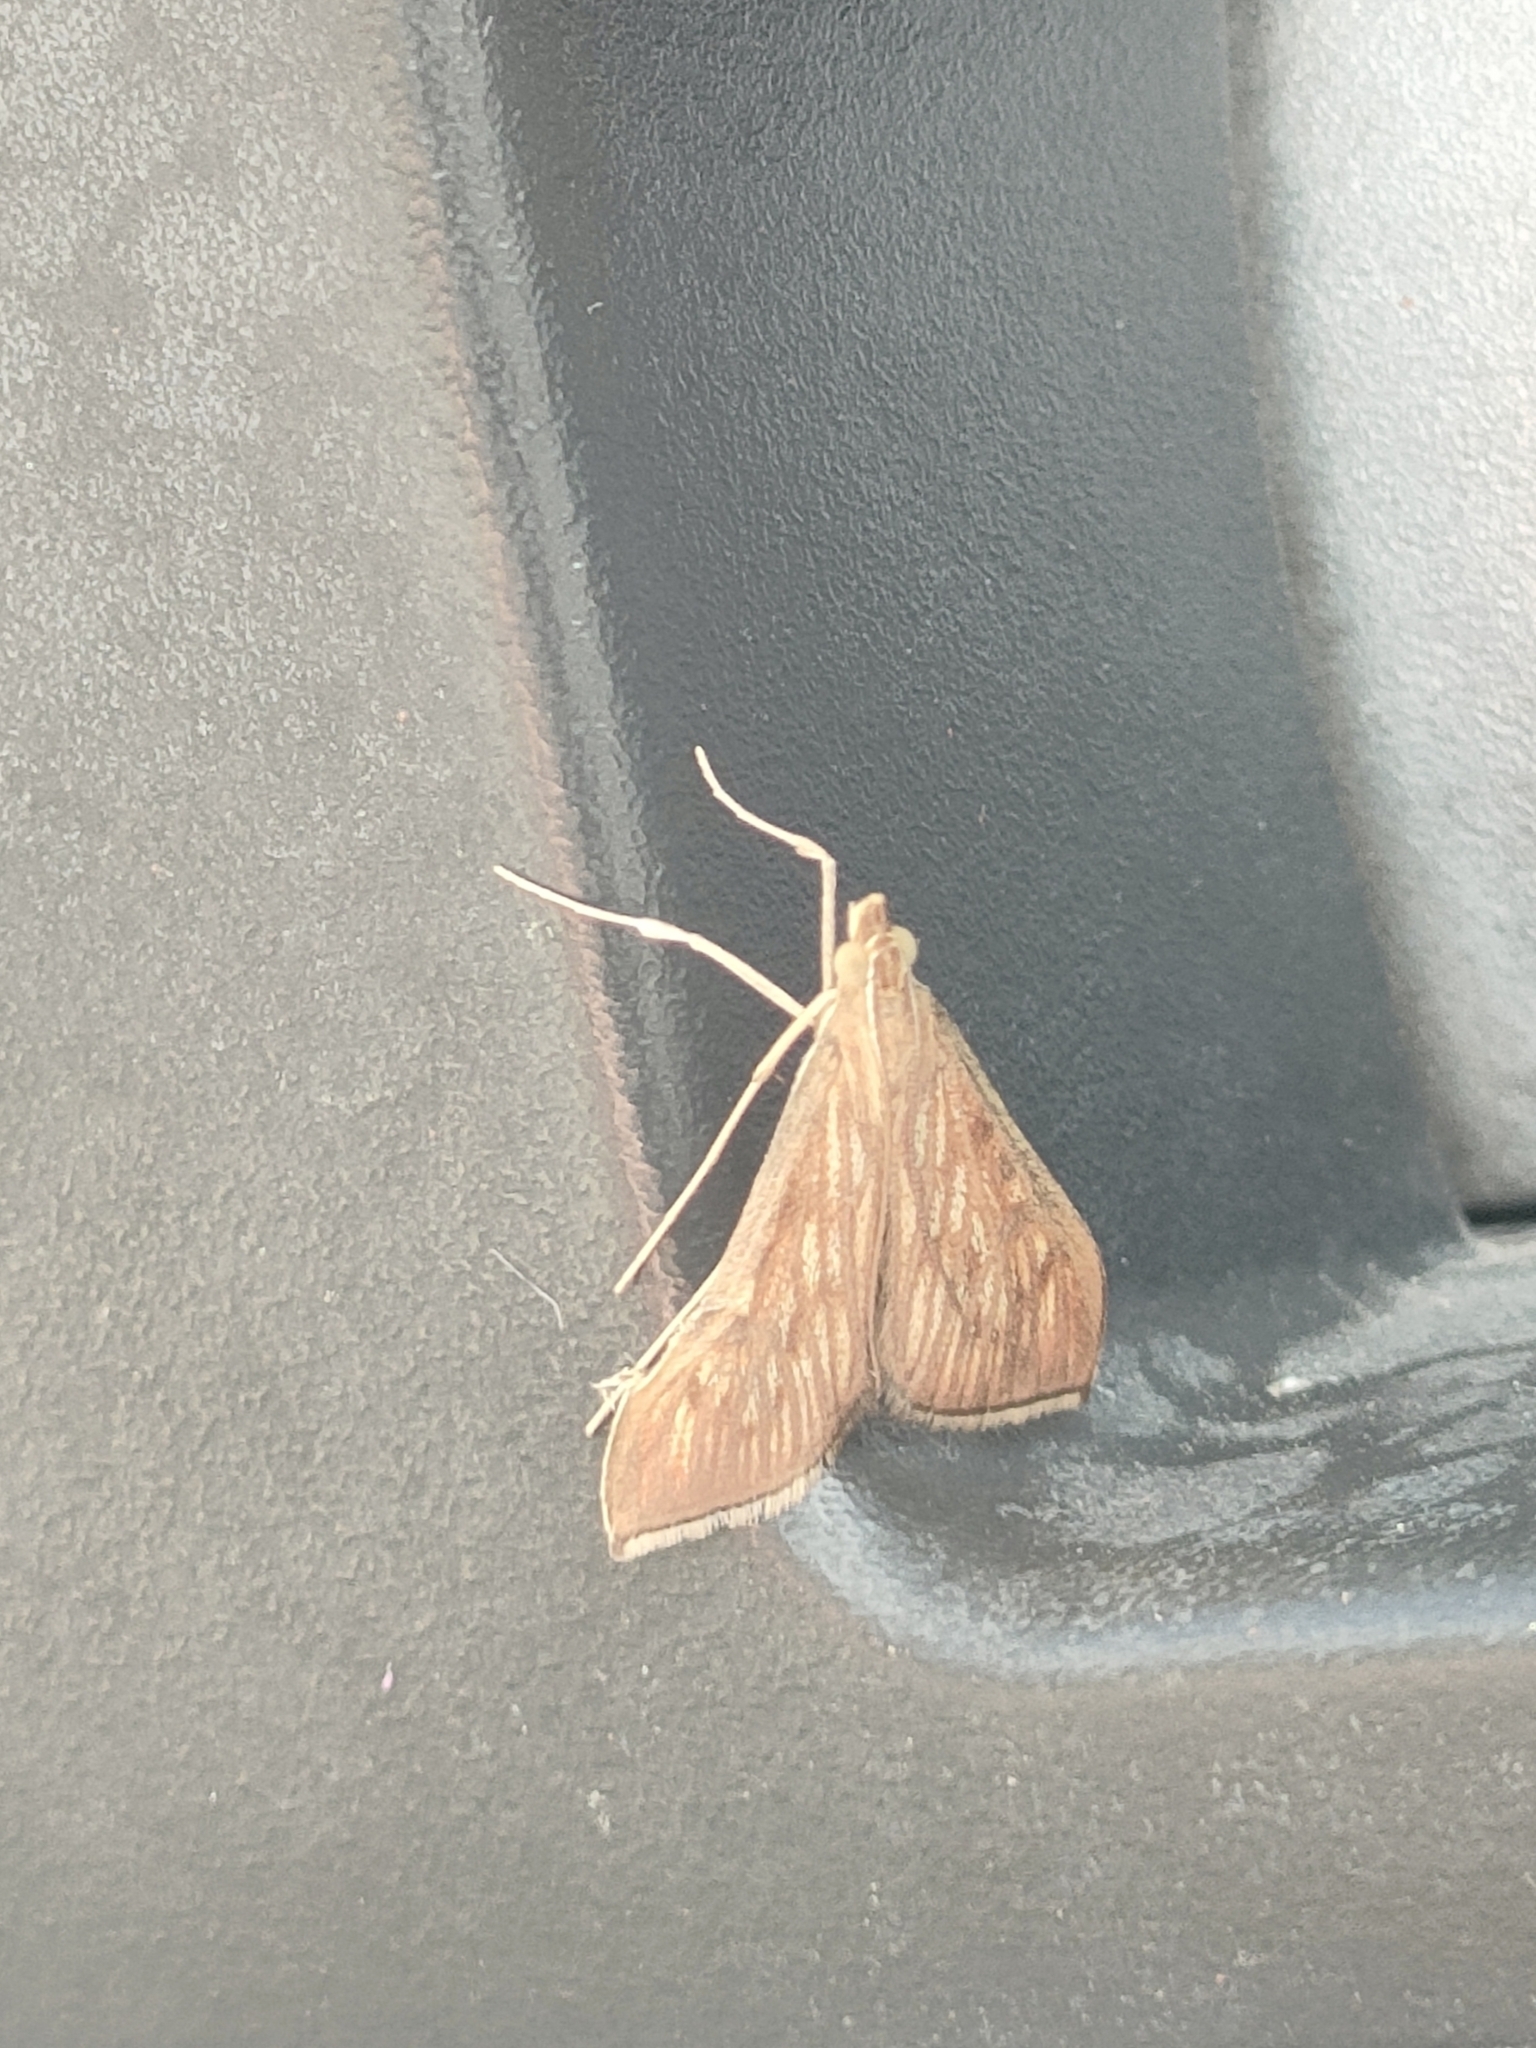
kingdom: Animalia
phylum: Arthropoda
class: Insecta
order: Lepidoptera
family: Crambidae
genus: Antigastra
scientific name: Antigastra catalaunalis
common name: Spanish dot
